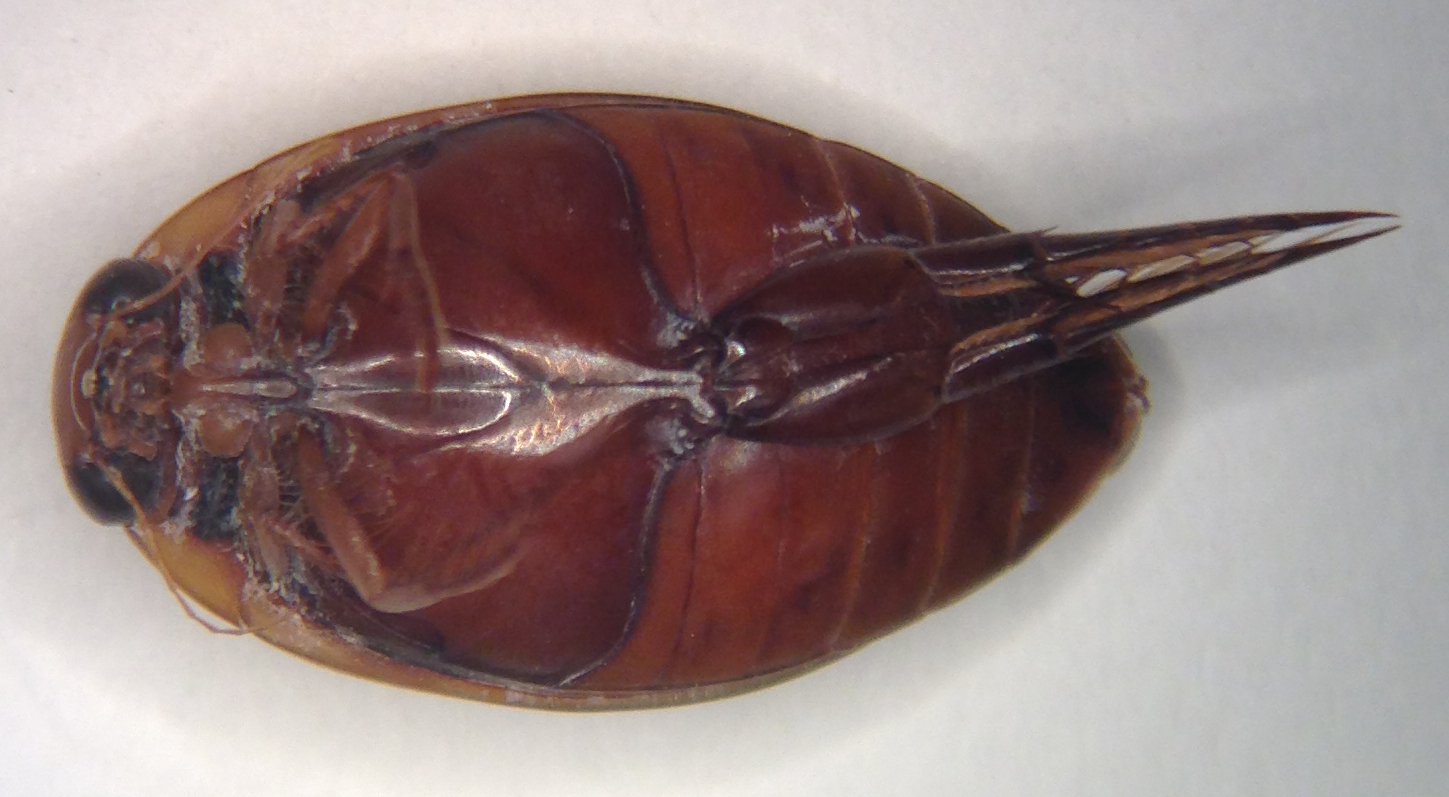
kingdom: Animalia
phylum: Arthropoda
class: Insecta
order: Coleoptera
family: Dytiscidae
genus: Thermonectus
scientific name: Thermonectus nigrofasciatus
